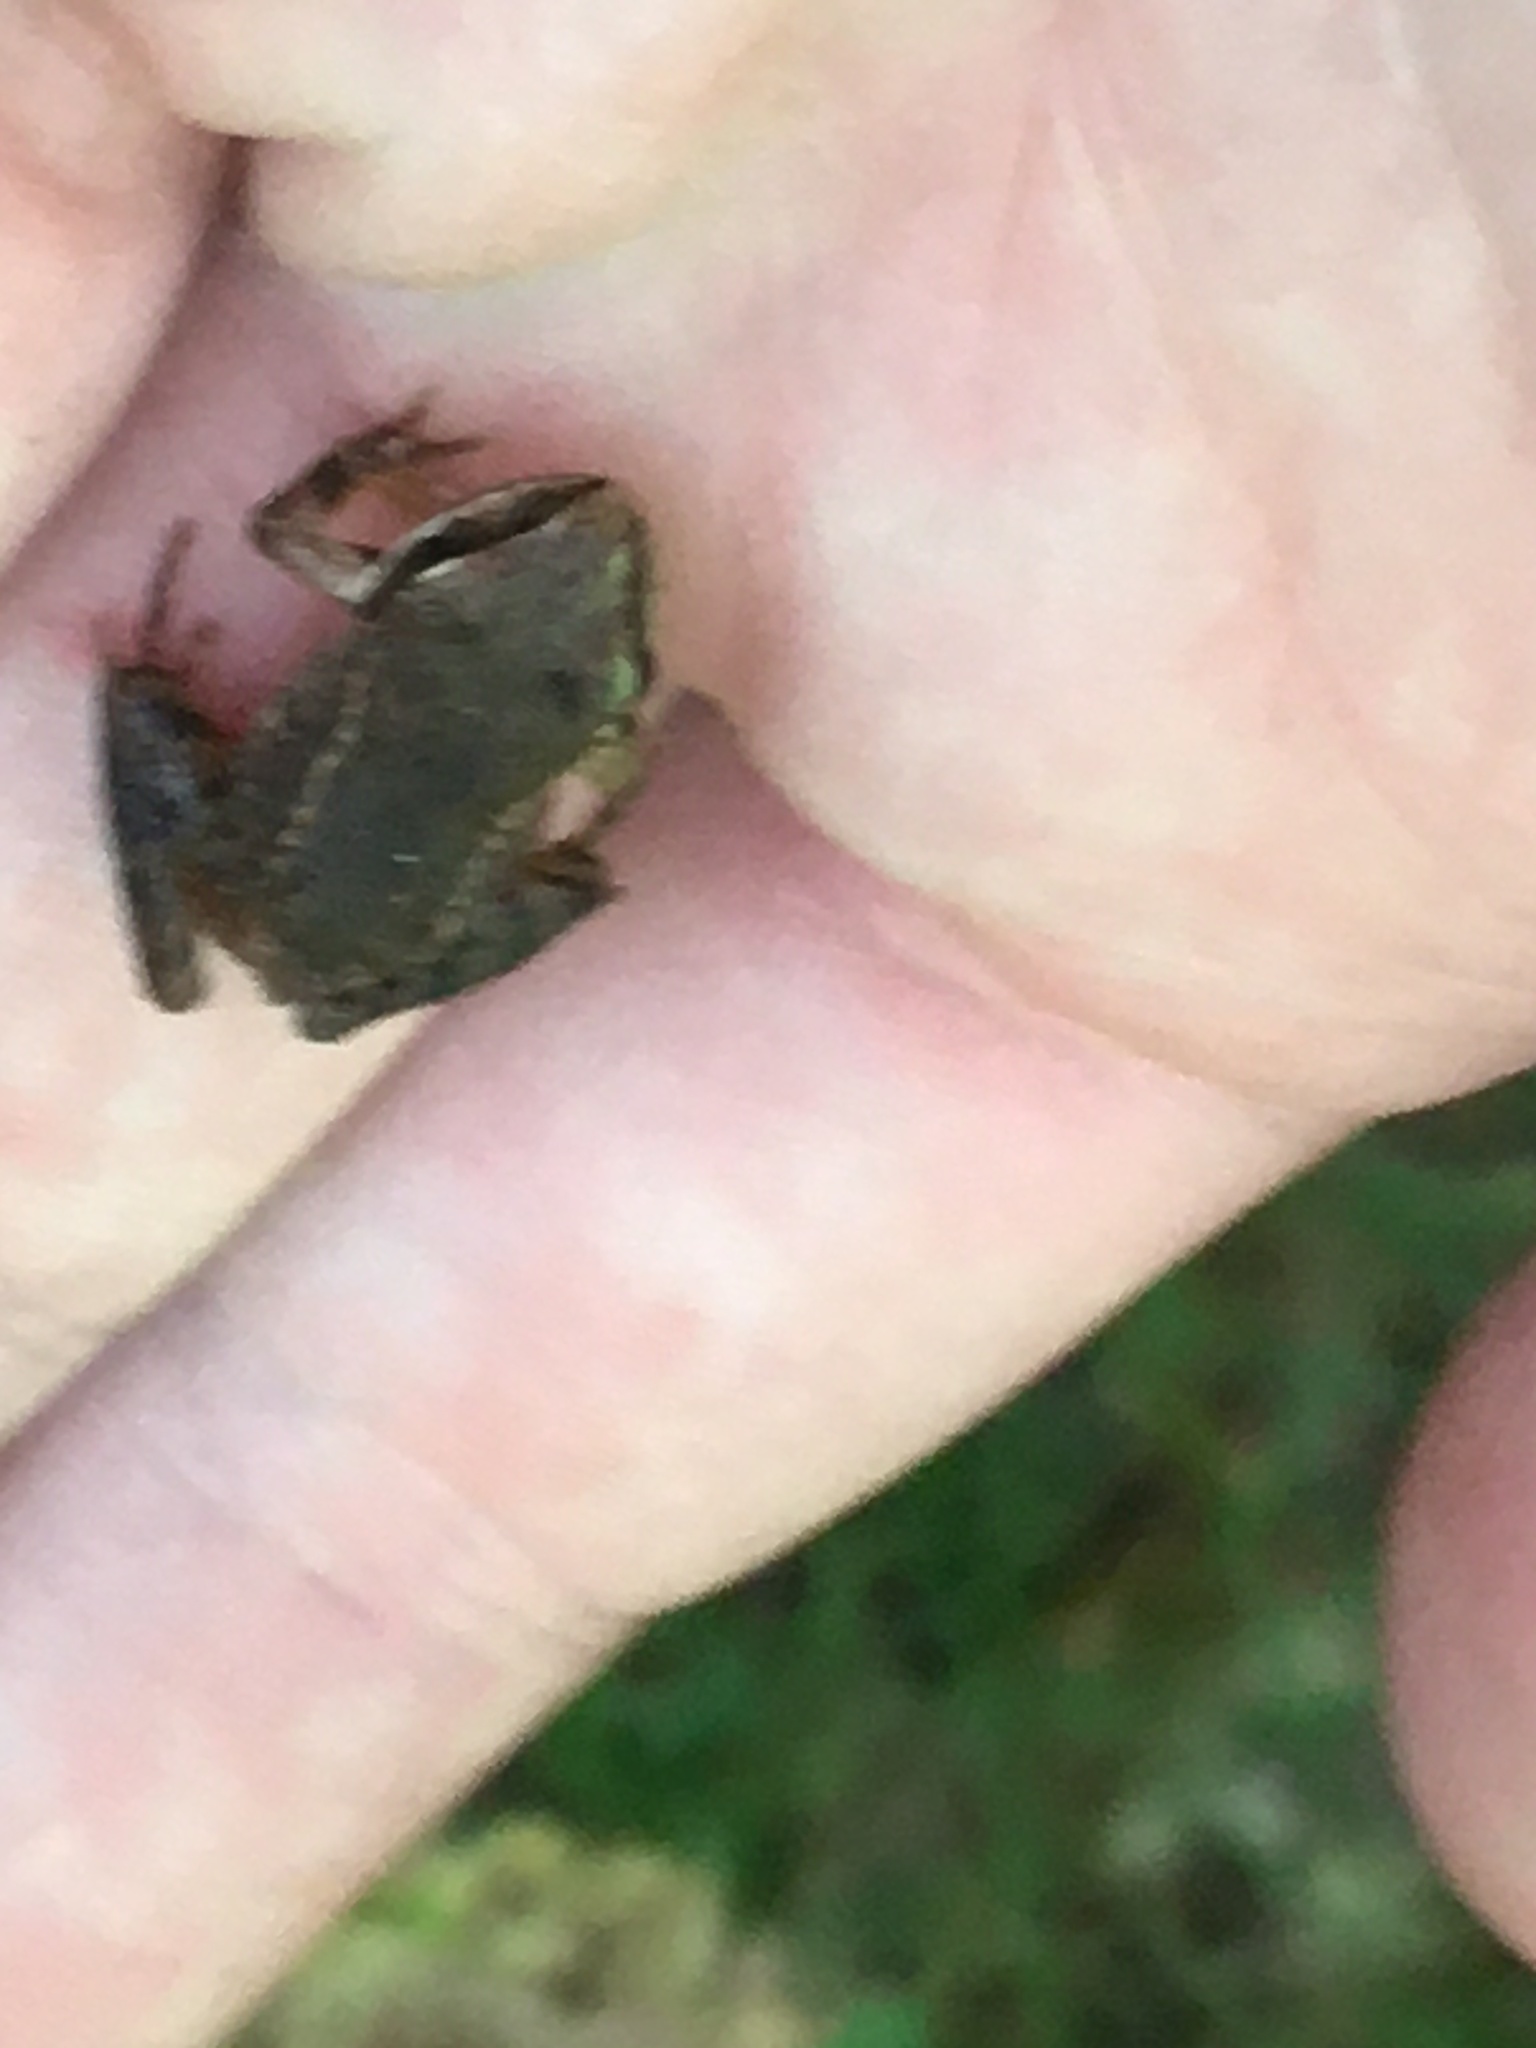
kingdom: Animalia
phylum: Chordata
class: Amphibia
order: Anura
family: Ranidae
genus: Lithobates
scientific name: Lithobates sylvaticus
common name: Wood frog
